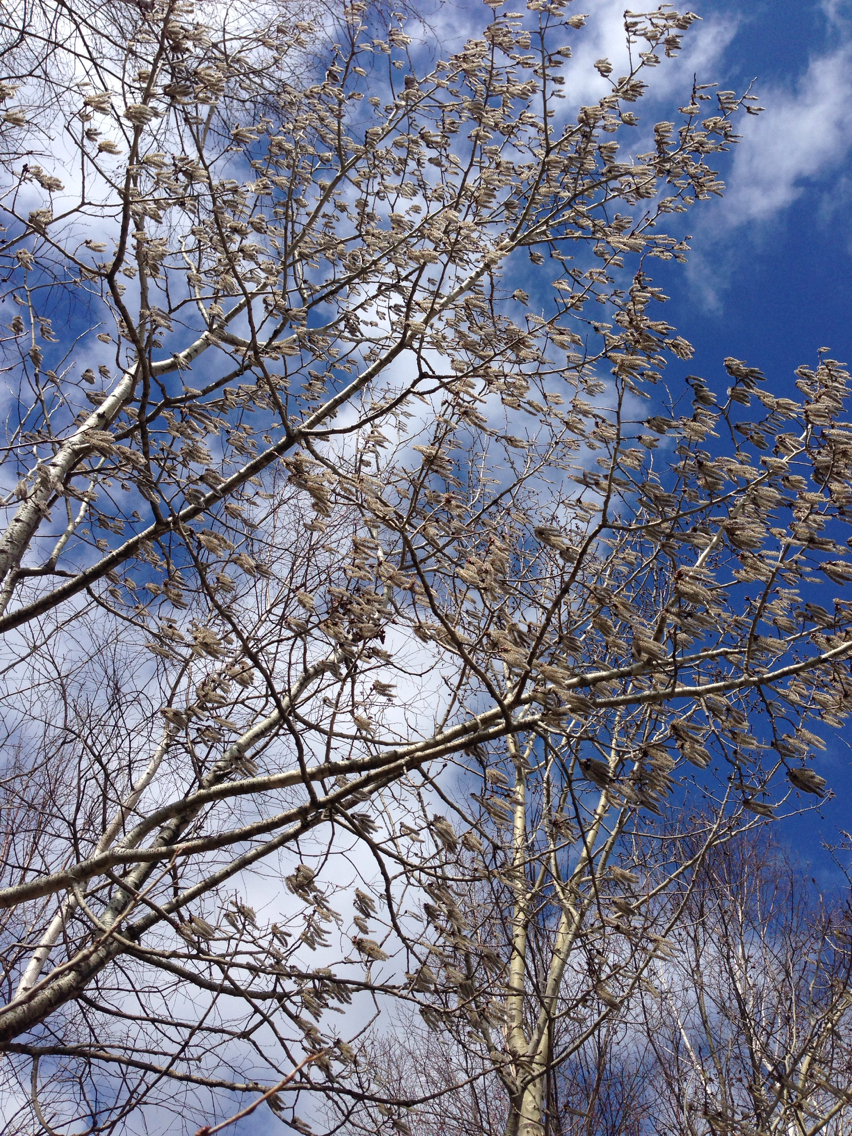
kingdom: Plantae
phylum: Tracheophyta
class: Magnoliopsida
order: Malpighiales
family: Salicaceae
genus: Populus
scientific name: Populus tremuloides
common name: Quaking aspen
